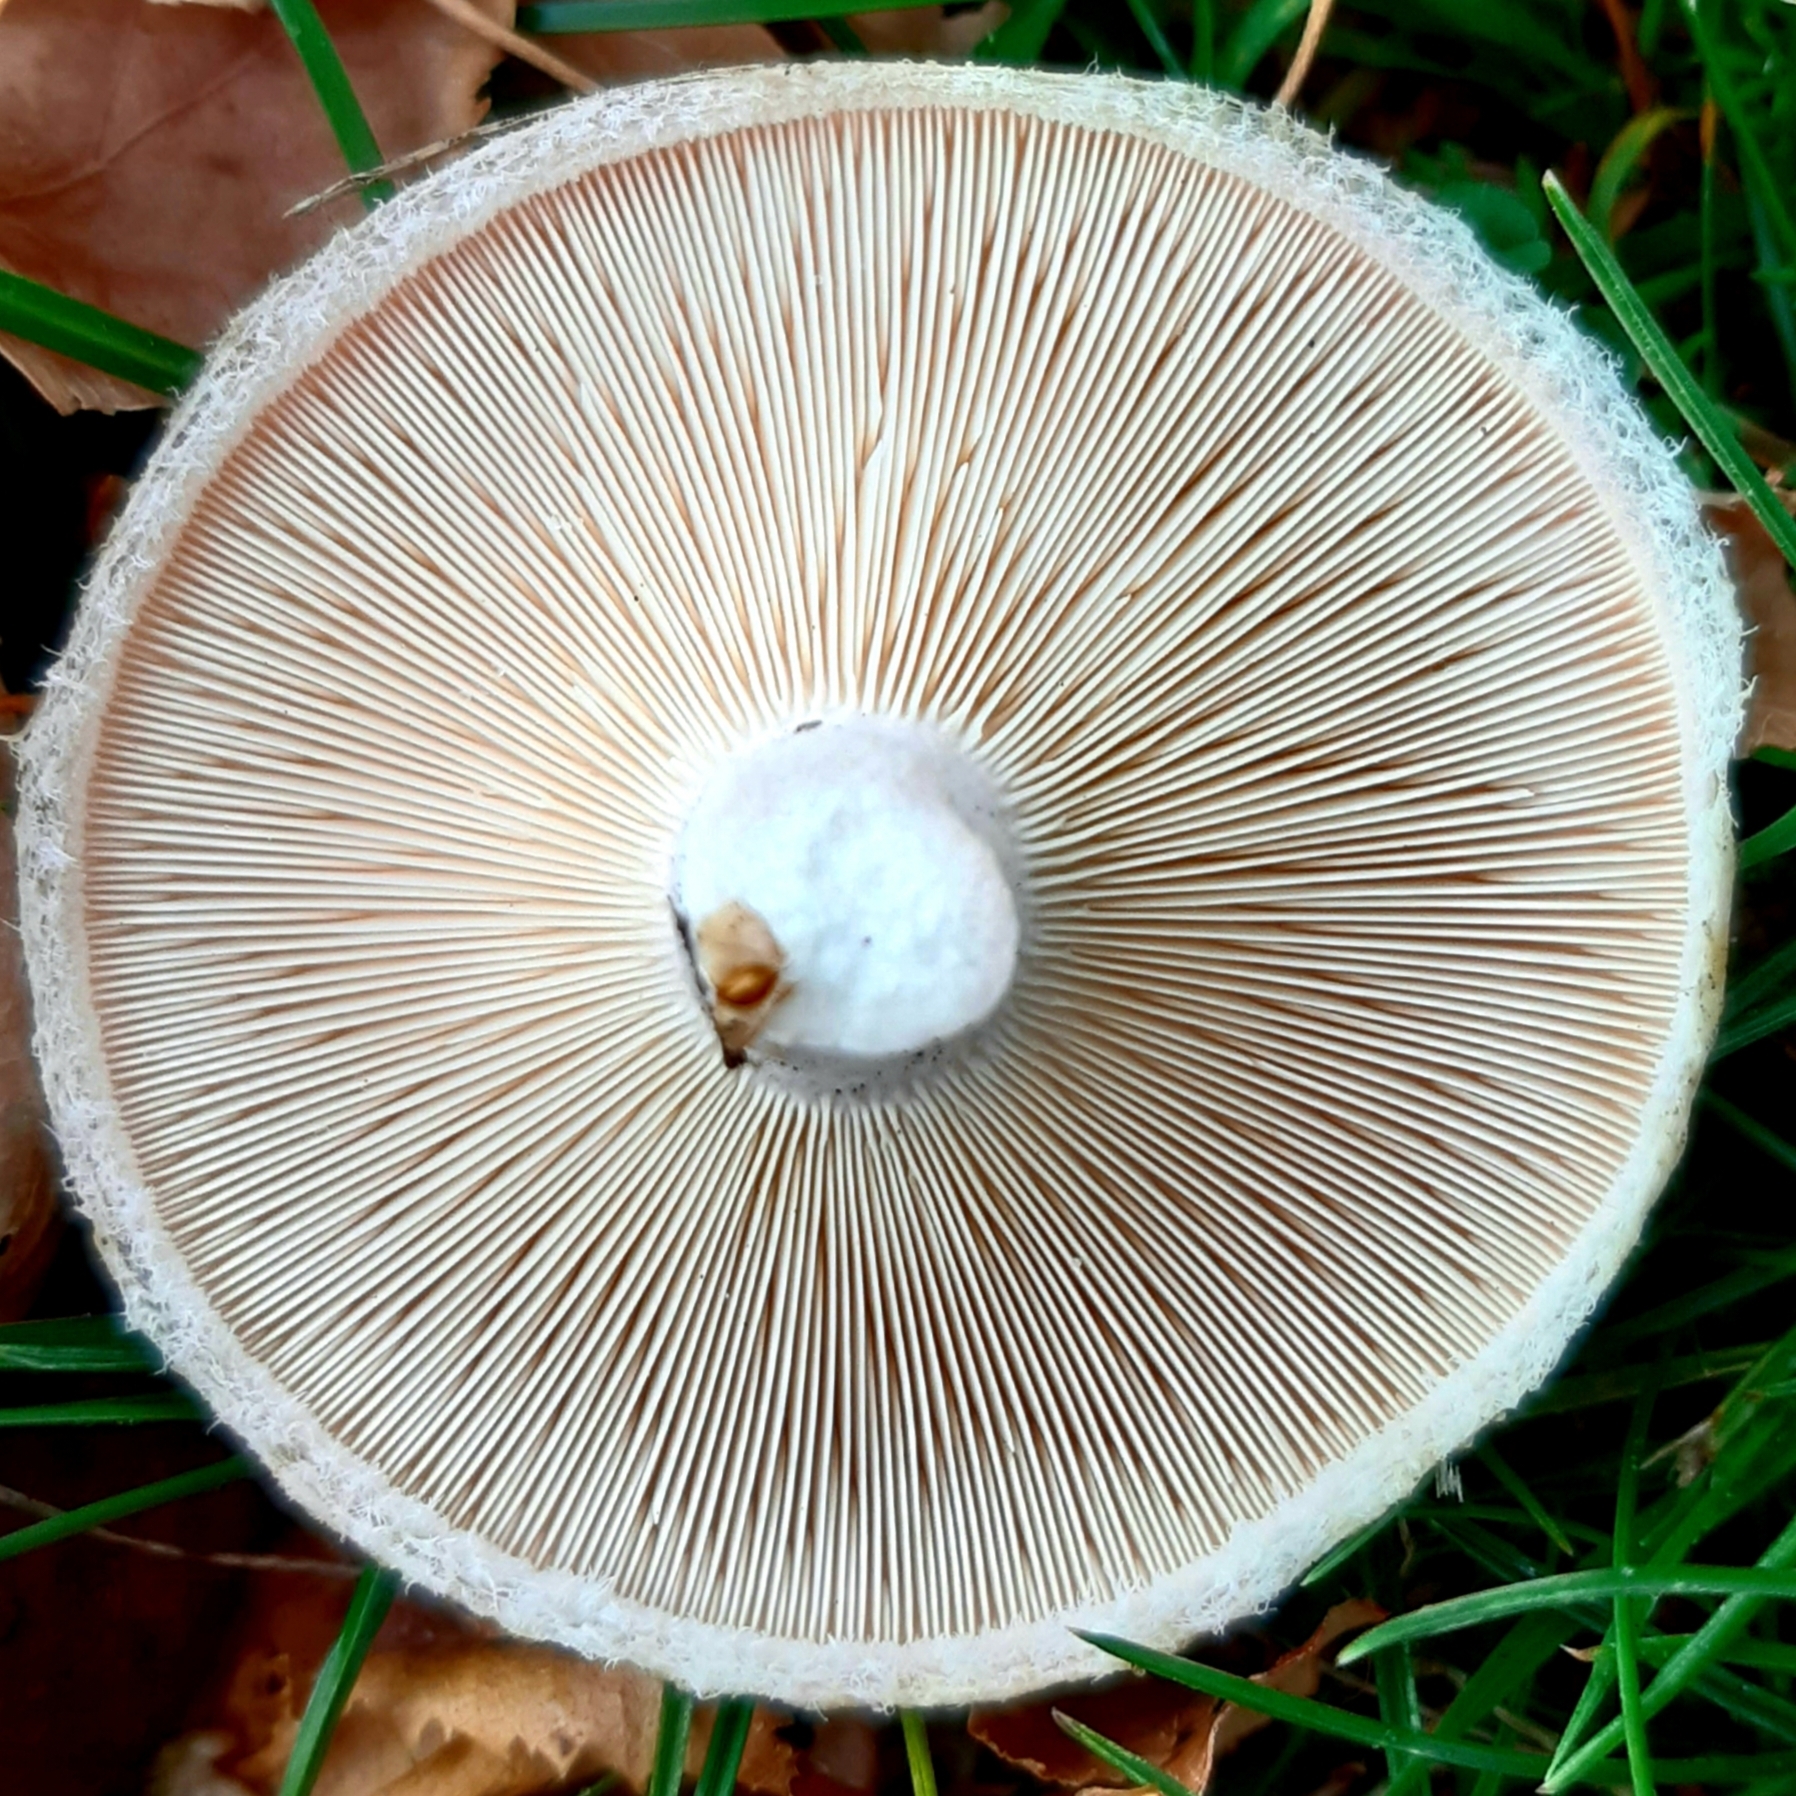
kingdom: Fungi
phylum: Basidiomycota
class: Agaricomycetes
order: Russulales
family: Russulaceae
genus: Lactarius
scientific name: Lactarius pubescens
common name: Bearded milkcap
